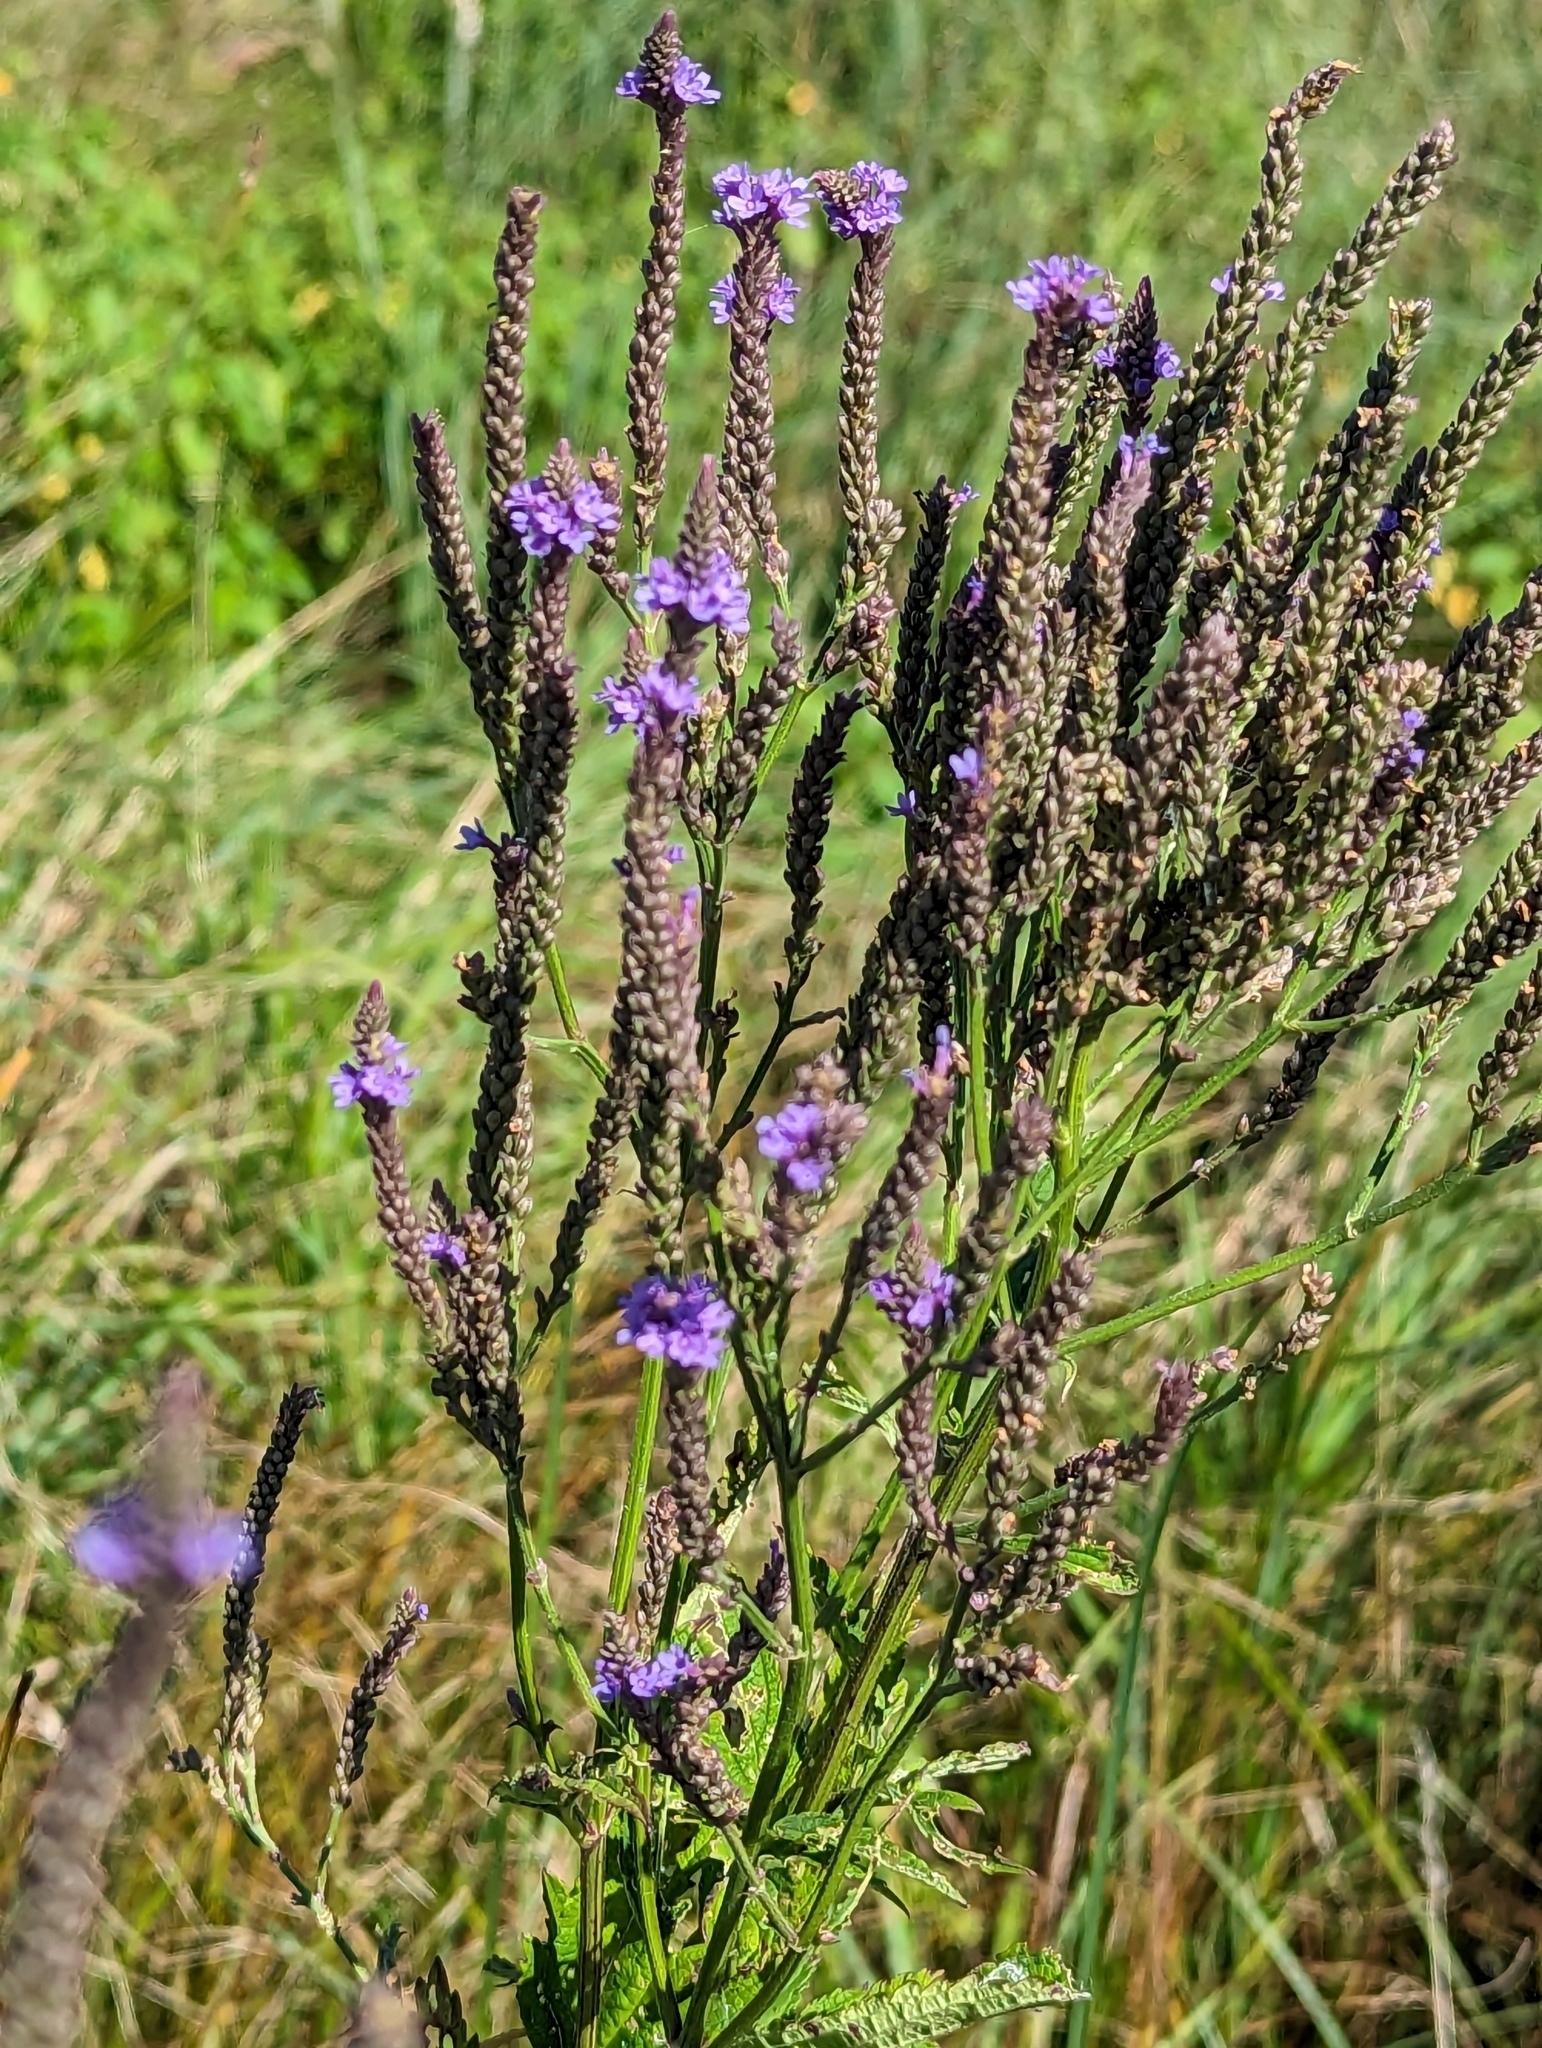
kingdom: Plantae
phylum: Tracheophyta
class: Magnoliopsida
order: Lamiales
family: Verbenaceae
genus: Verbena
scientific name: Verbena hastata
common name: American blue vervain
